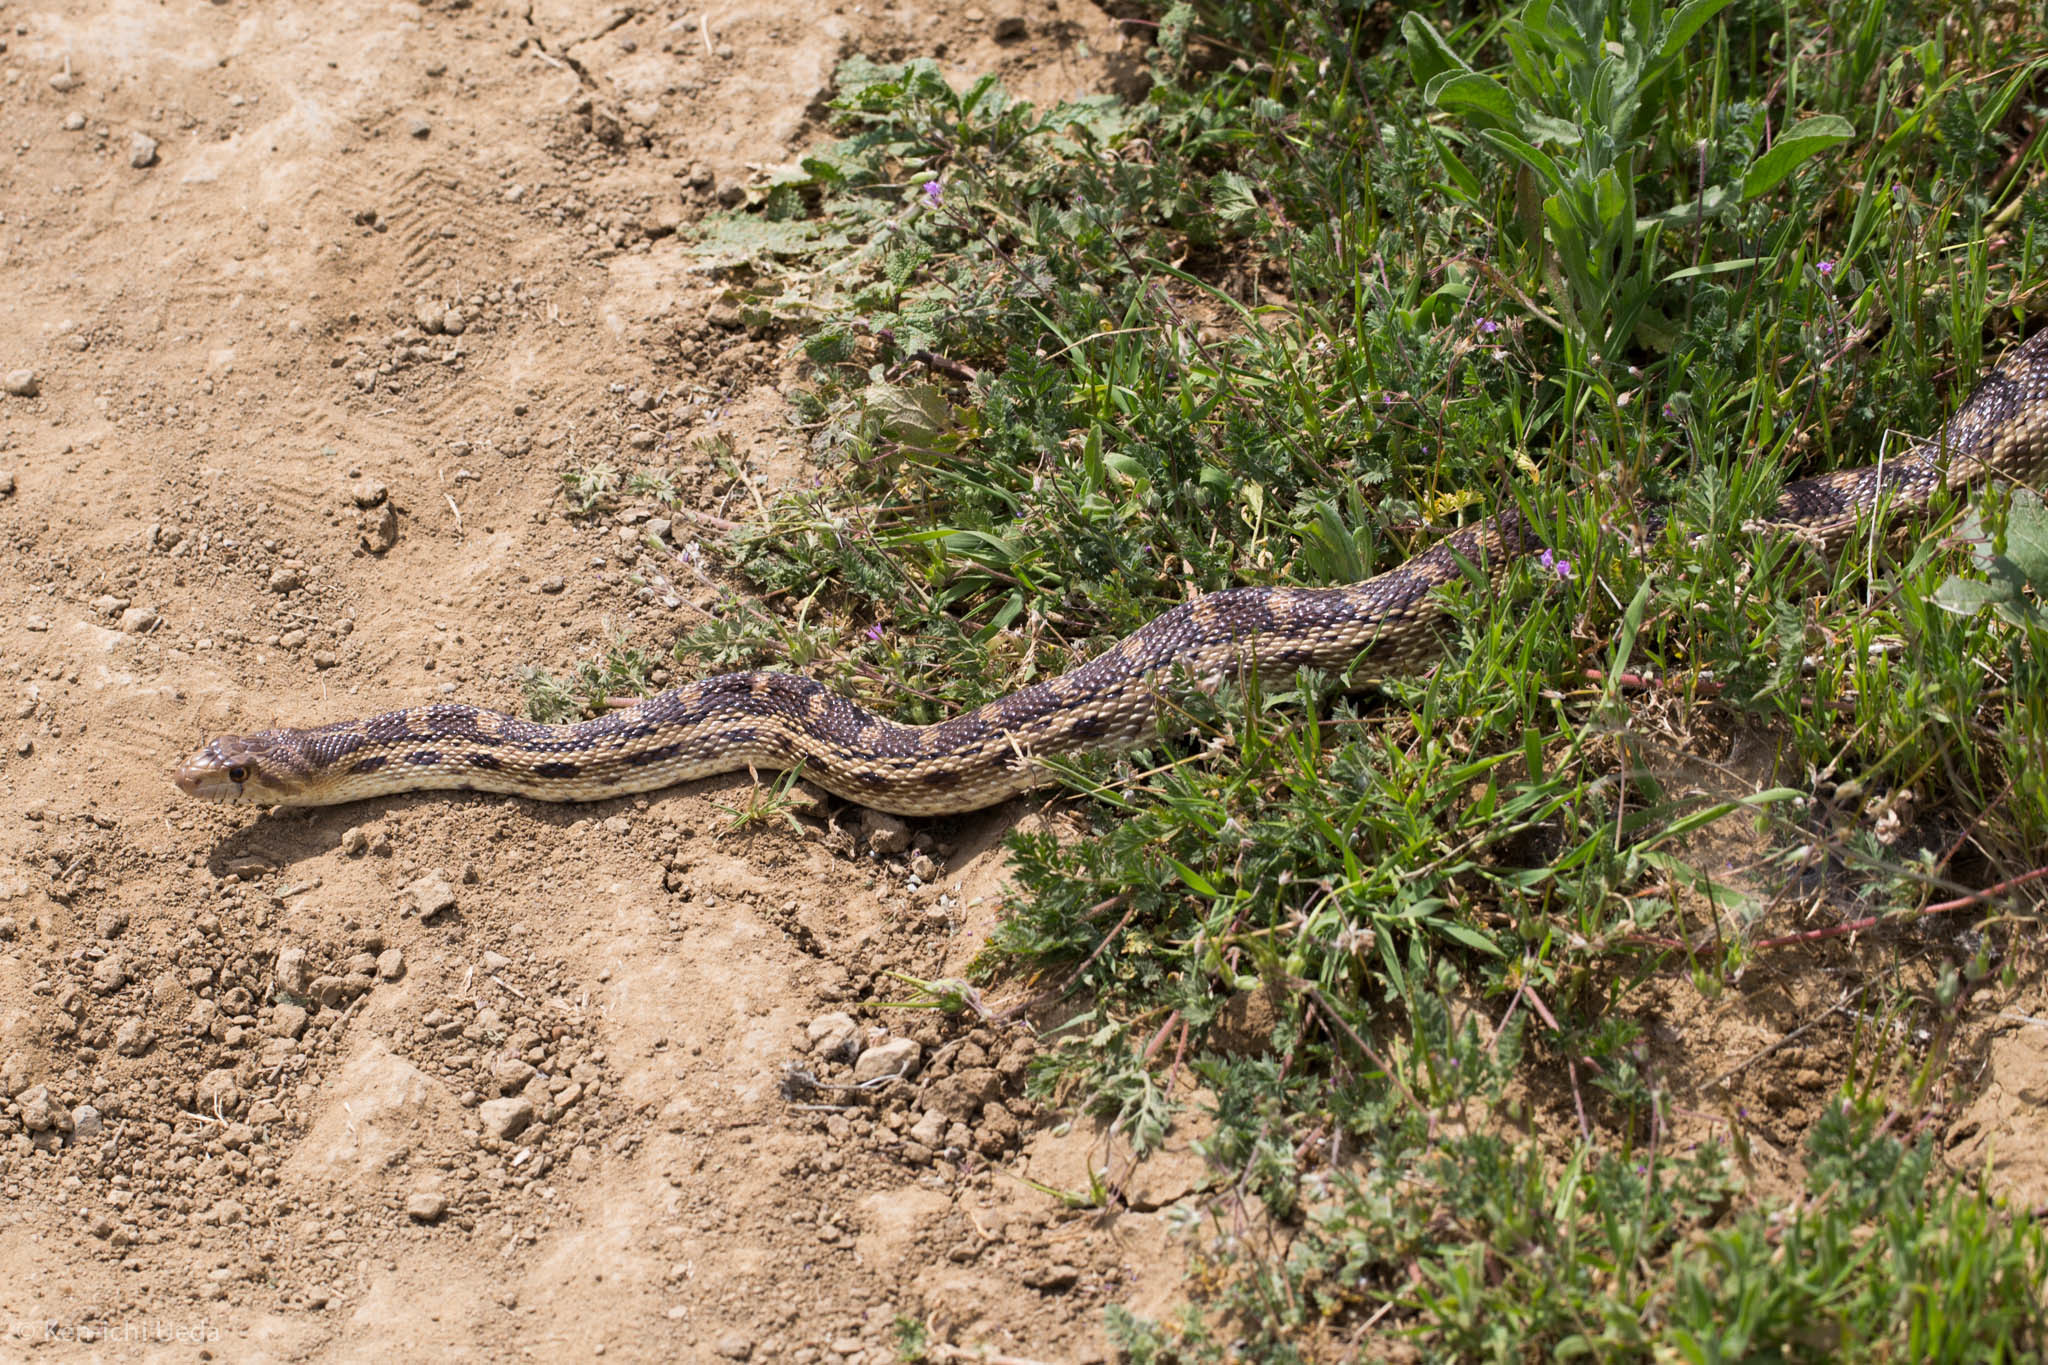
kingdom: Animalia
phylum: Chordata
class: Squamata
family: Colubridae
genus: Pituophis
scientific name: Pituophis catenifer
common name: Gopher snake
